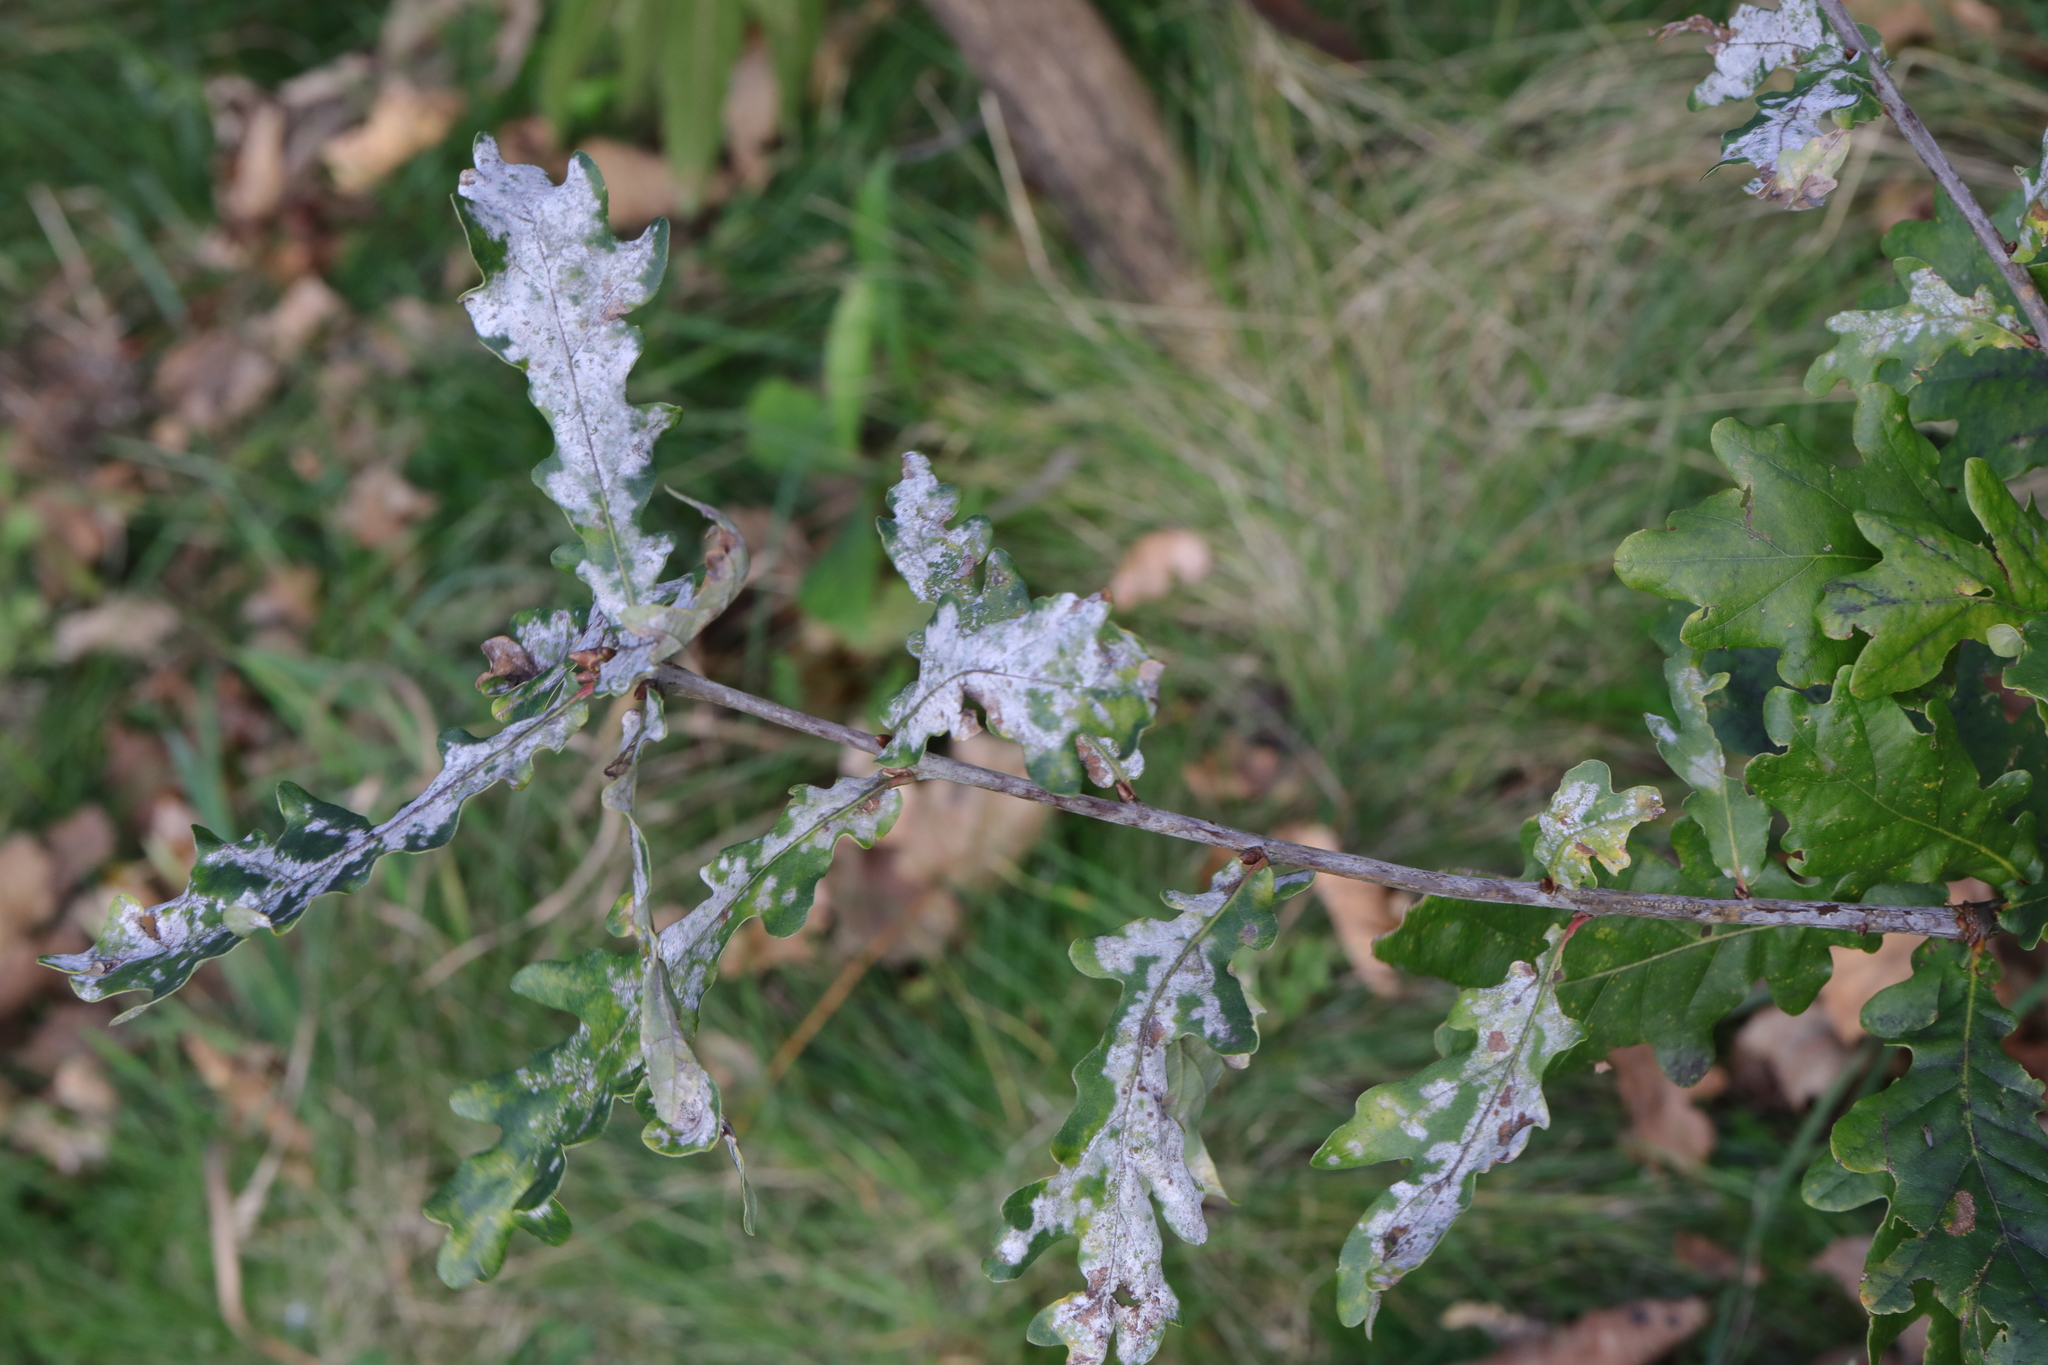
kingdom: Fungi
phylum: Ascomycota
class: Leotiomycetes
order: Helotiales
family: Erysiphaceae
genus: Erysiphe
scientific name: Erysiphe alphitoides
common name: Oak mildew
